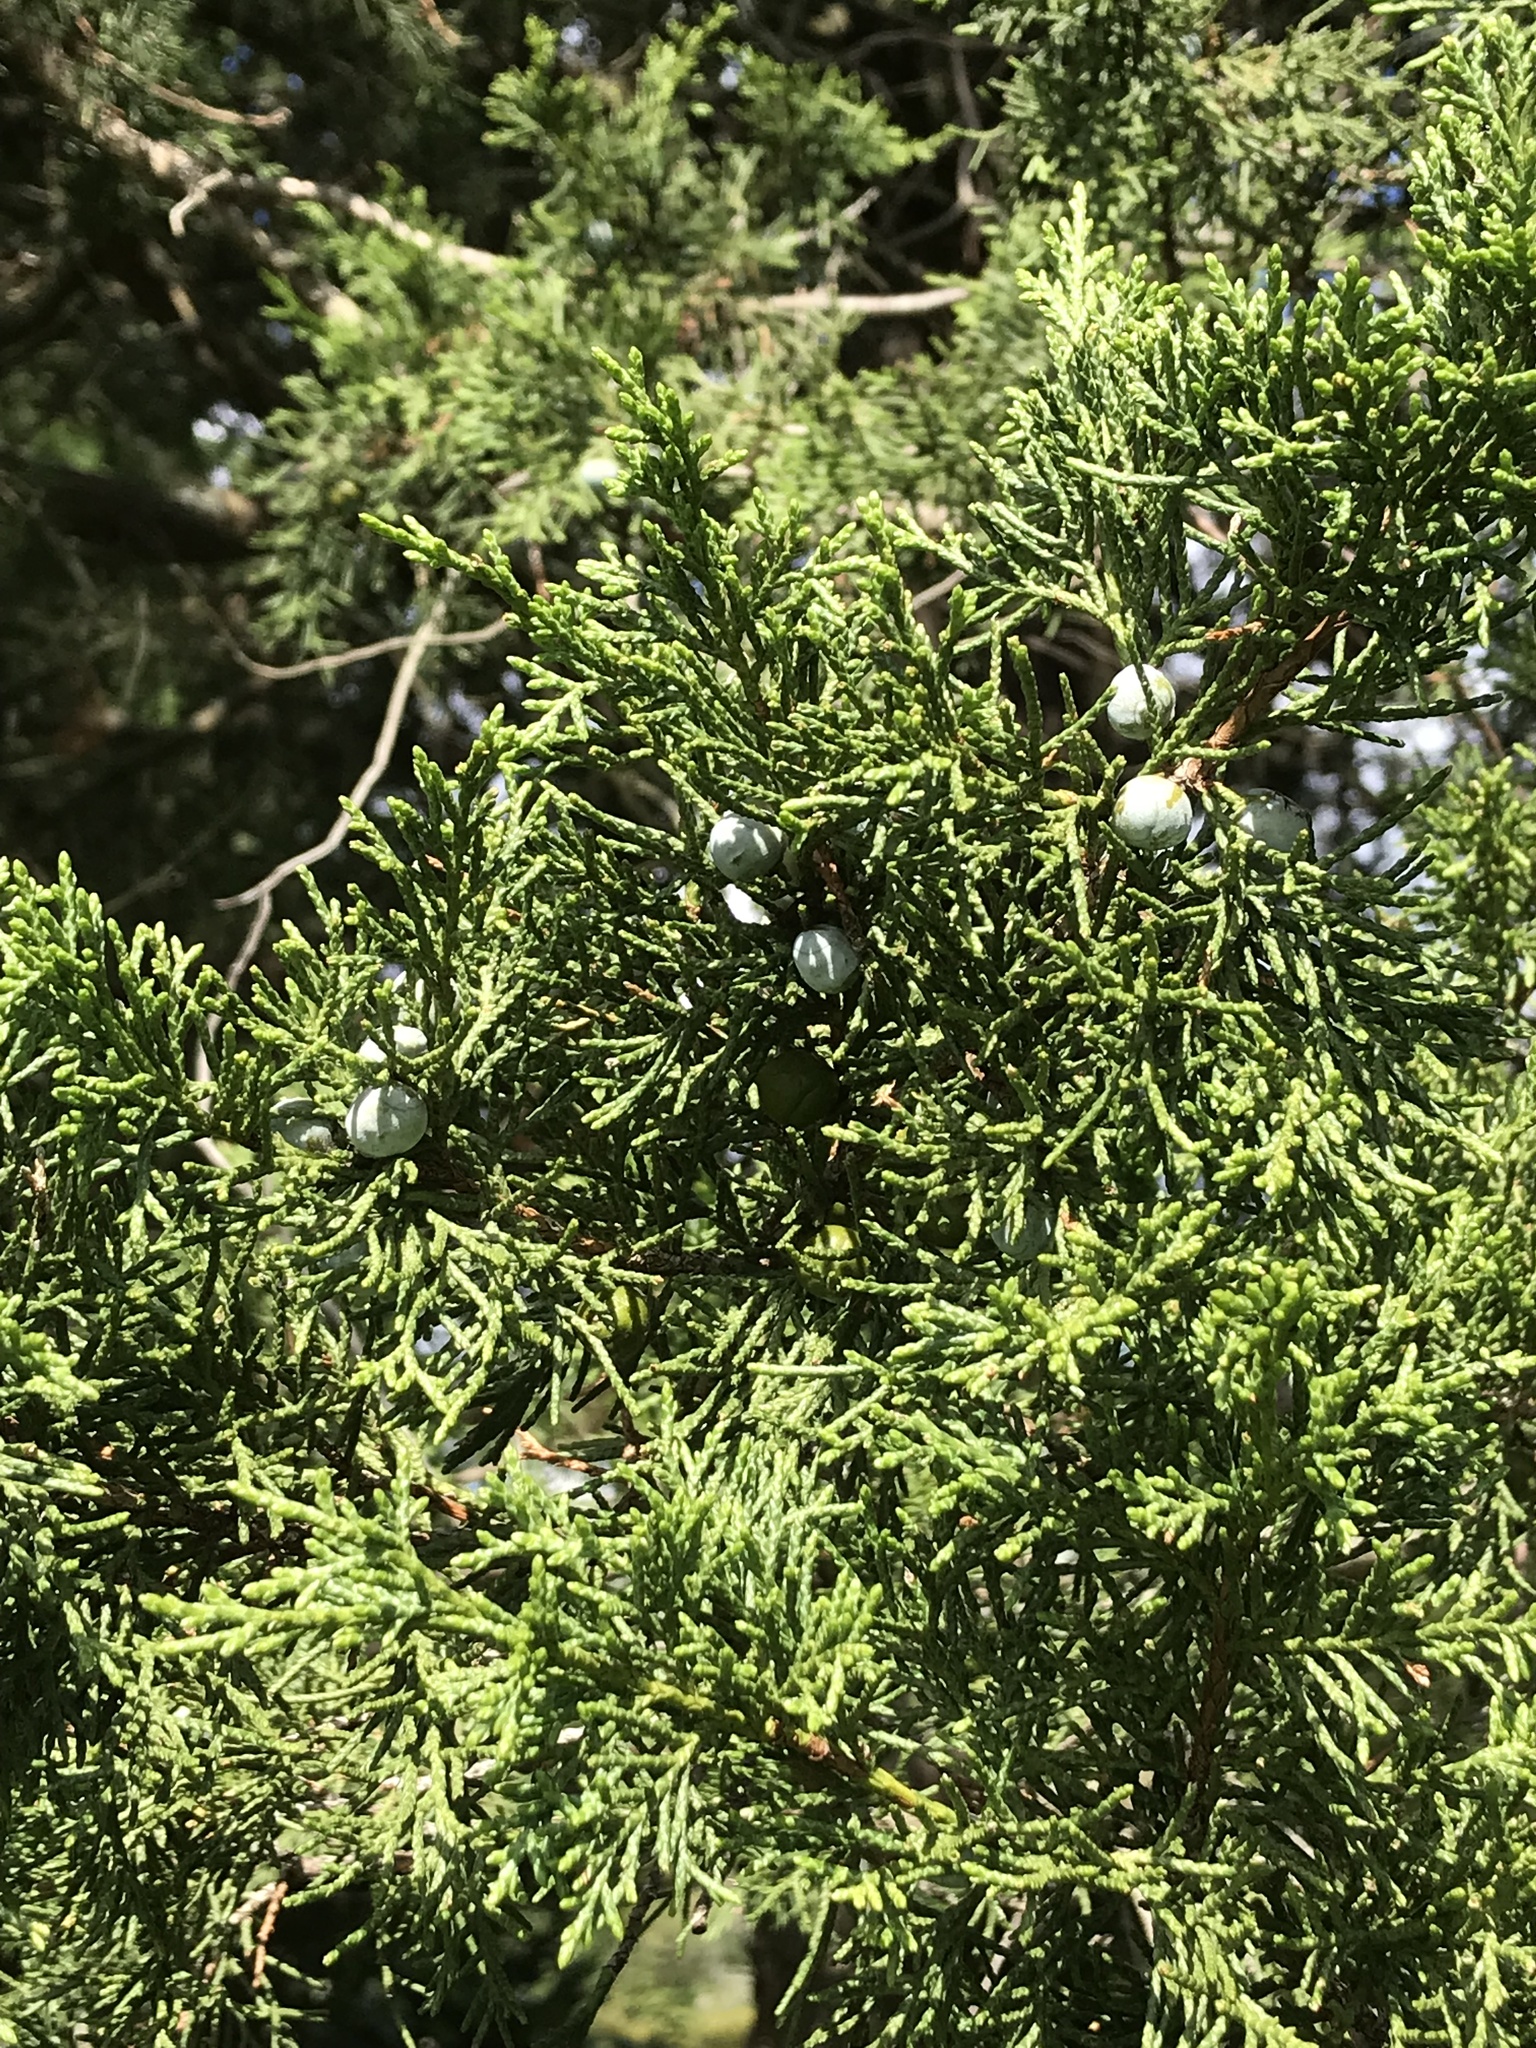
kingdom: Plantae
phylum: Tracheophyta
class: Pinopsida
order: Pinales
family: Cupressaceae
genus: Juniperus
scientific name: Juniperus virginiana
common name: Red juniper
